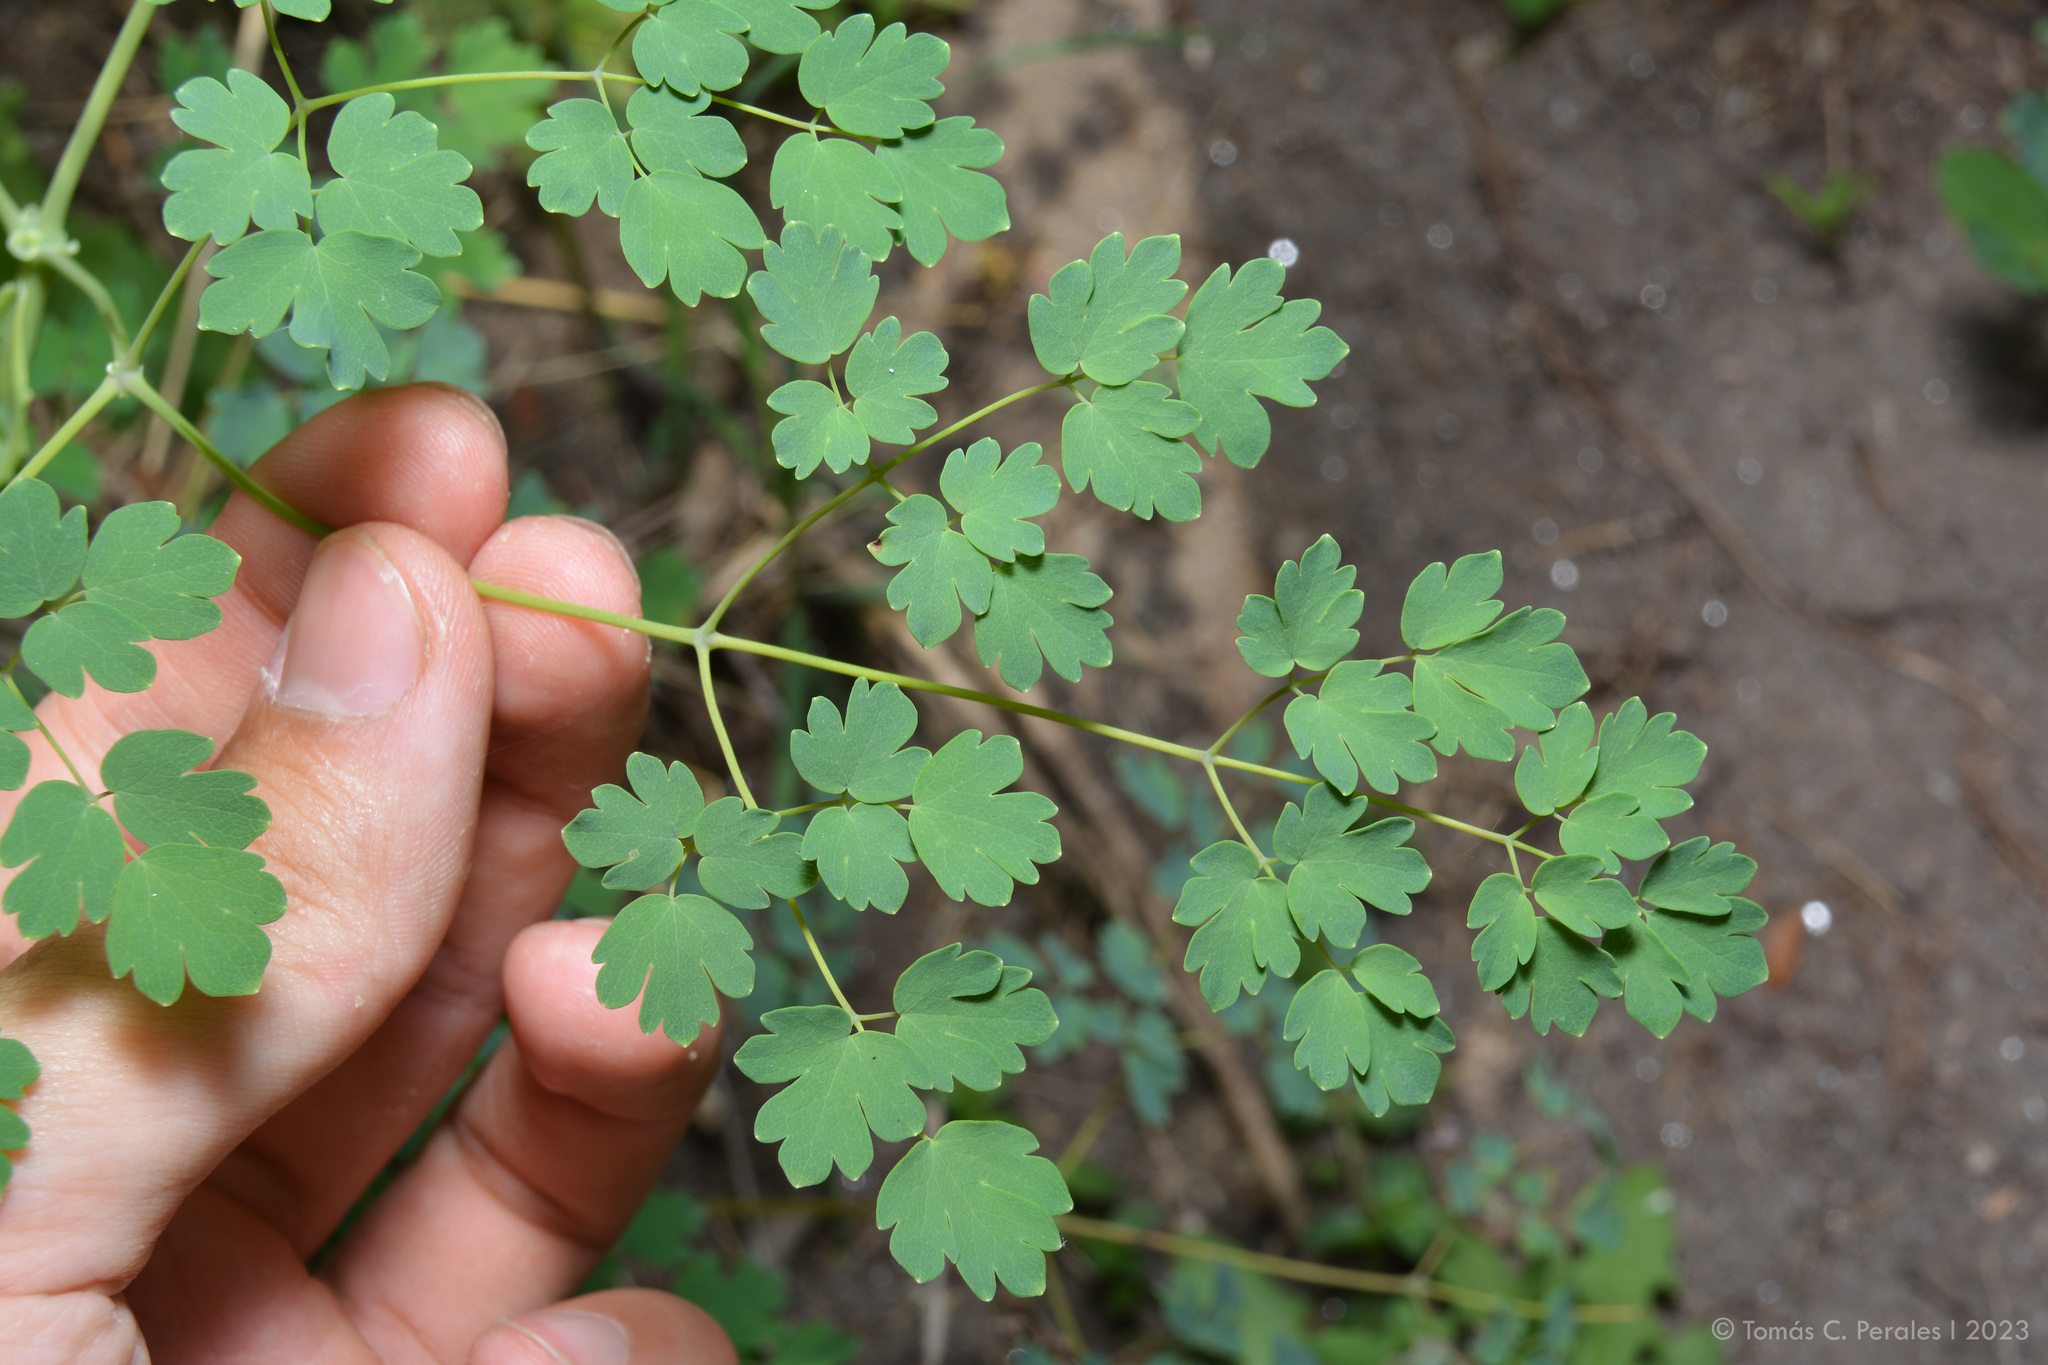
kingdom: Plantae
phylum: Tracheophyta
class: Magnoliopsida
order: Ranunculales
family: Ranunculaceae
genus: Thalictrum
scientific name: Thalictrum decipiens
